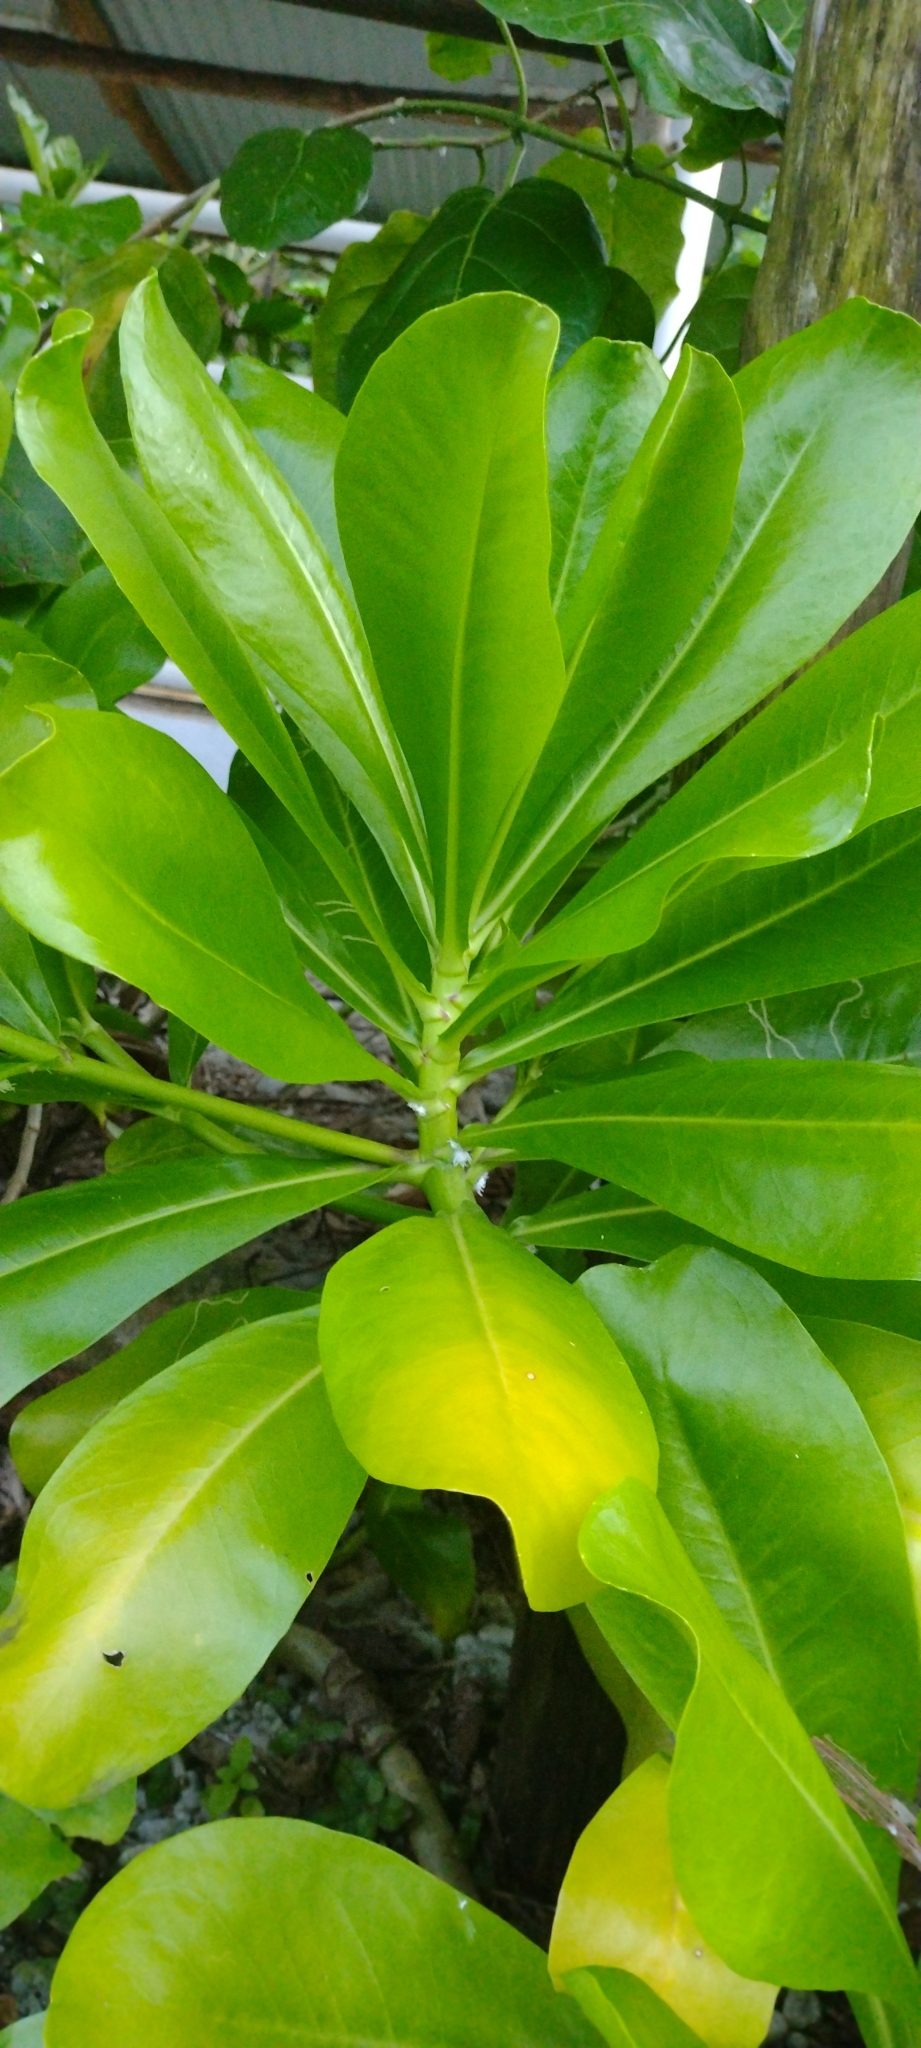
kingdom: Plantae
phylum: Tracheophyta
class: Magnoliopsida
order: Asterales
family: Goodeniaceae
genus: Scaevola
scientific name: Scaevola taccada
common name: Sea lettucetree
